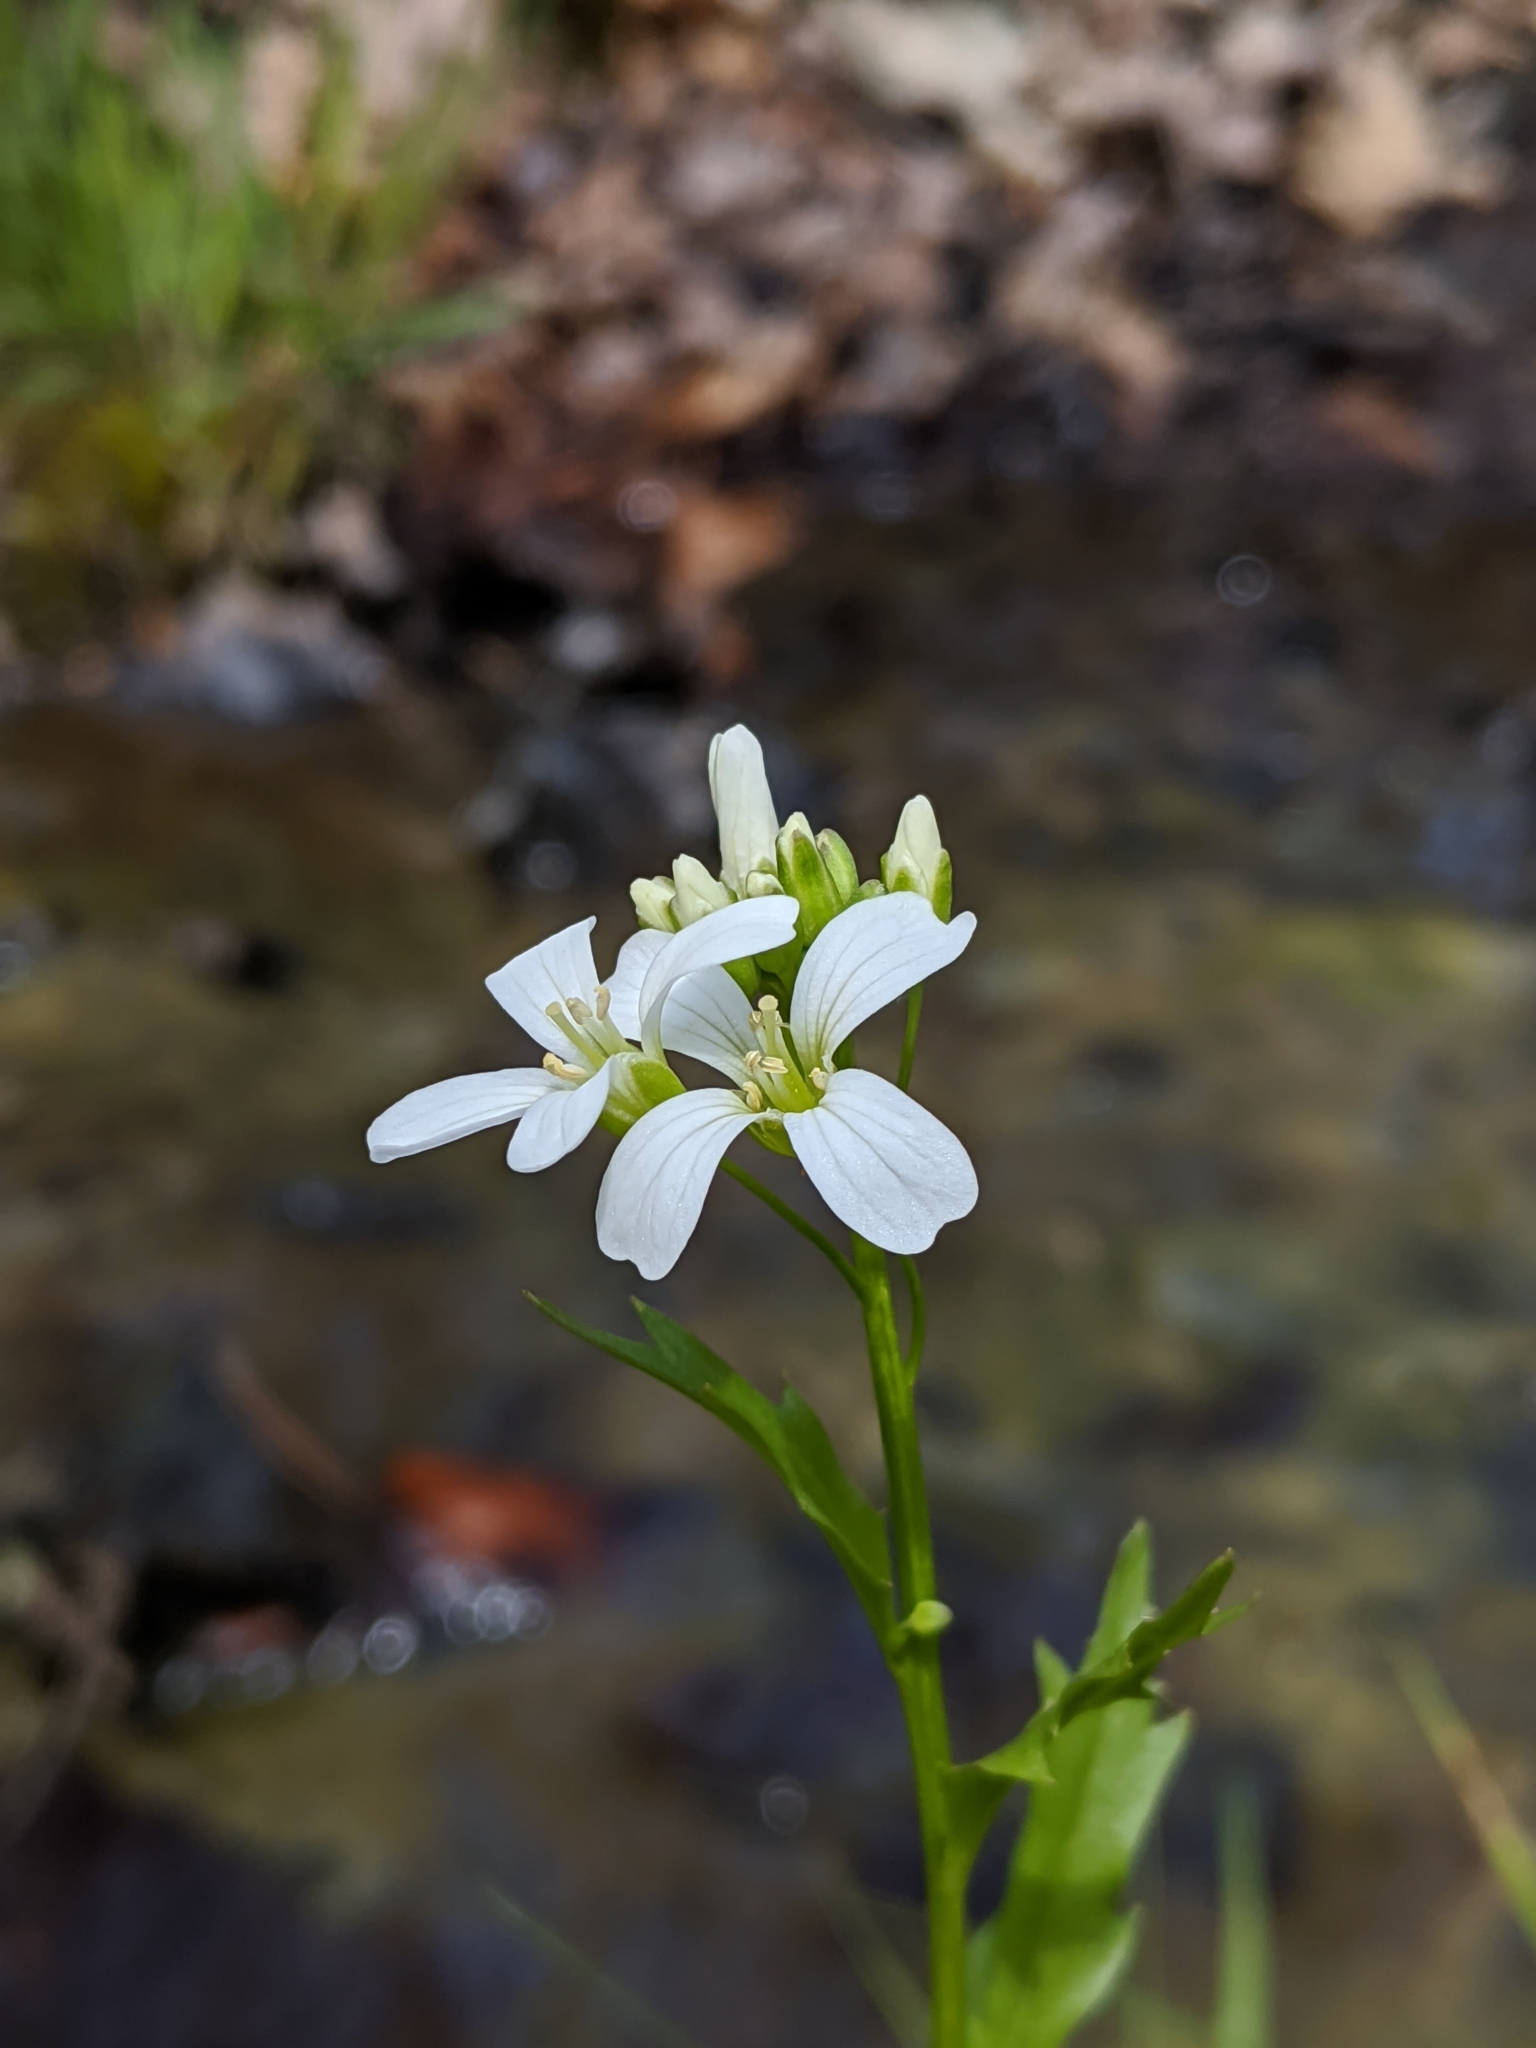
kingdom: Plantae
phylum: Tracheophyta
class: Magnoliopsida
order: Brassicales
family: Brassicaceae
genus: Cardamine
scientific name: Cardamine bulbosa
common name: Spring cress
